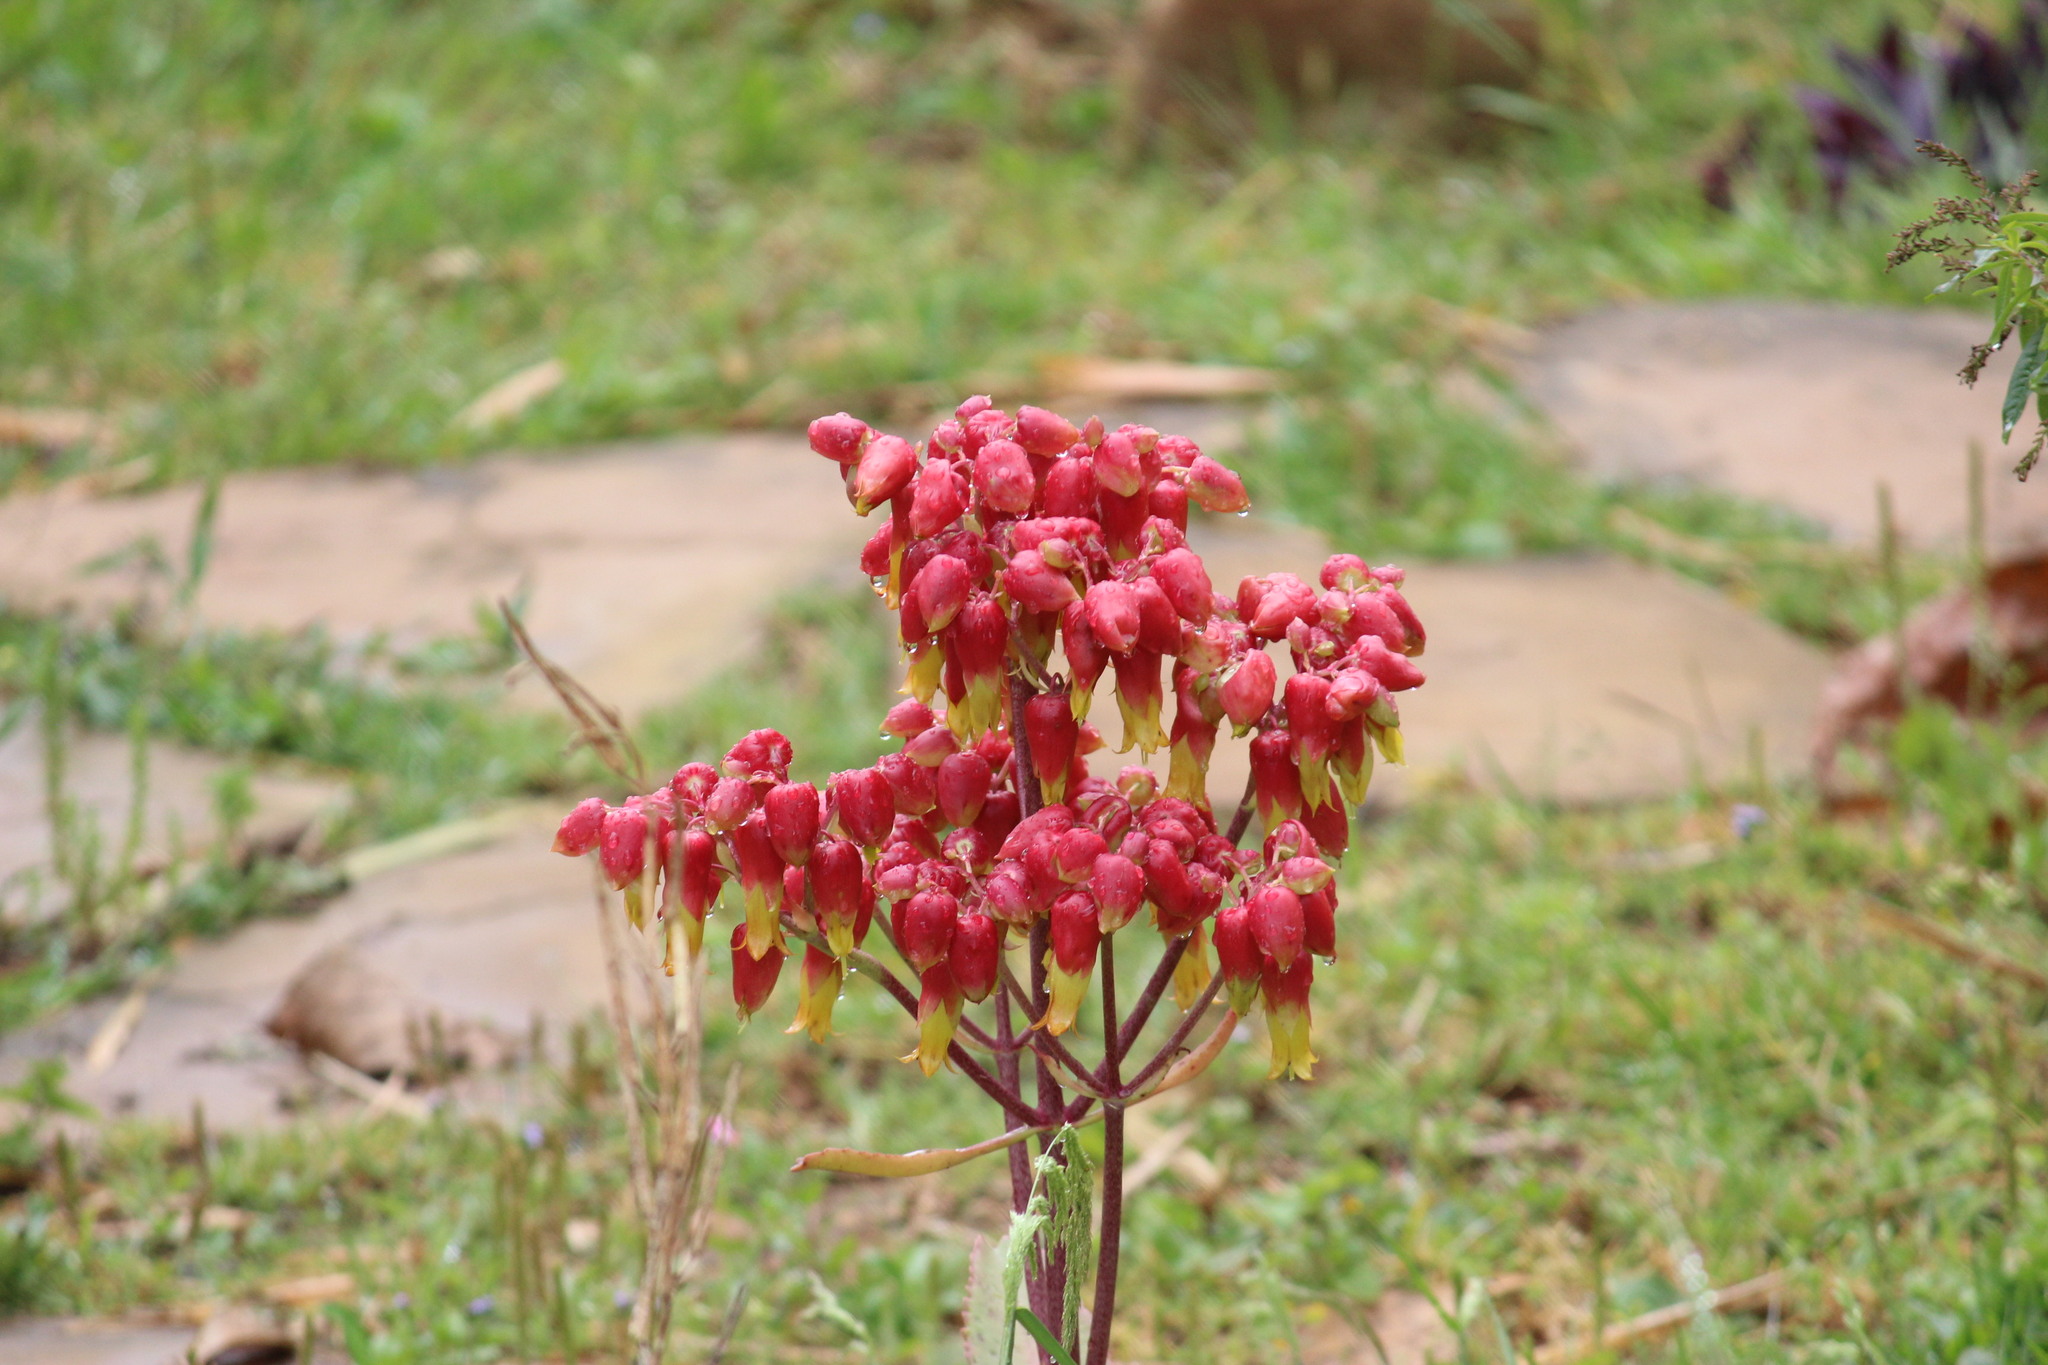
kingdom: Chromista
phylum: Ciliophora
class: Gymnostomatea
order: Spathidiida
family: Spathidiidae
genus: Bryophyllum
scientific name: Bryophyllum
